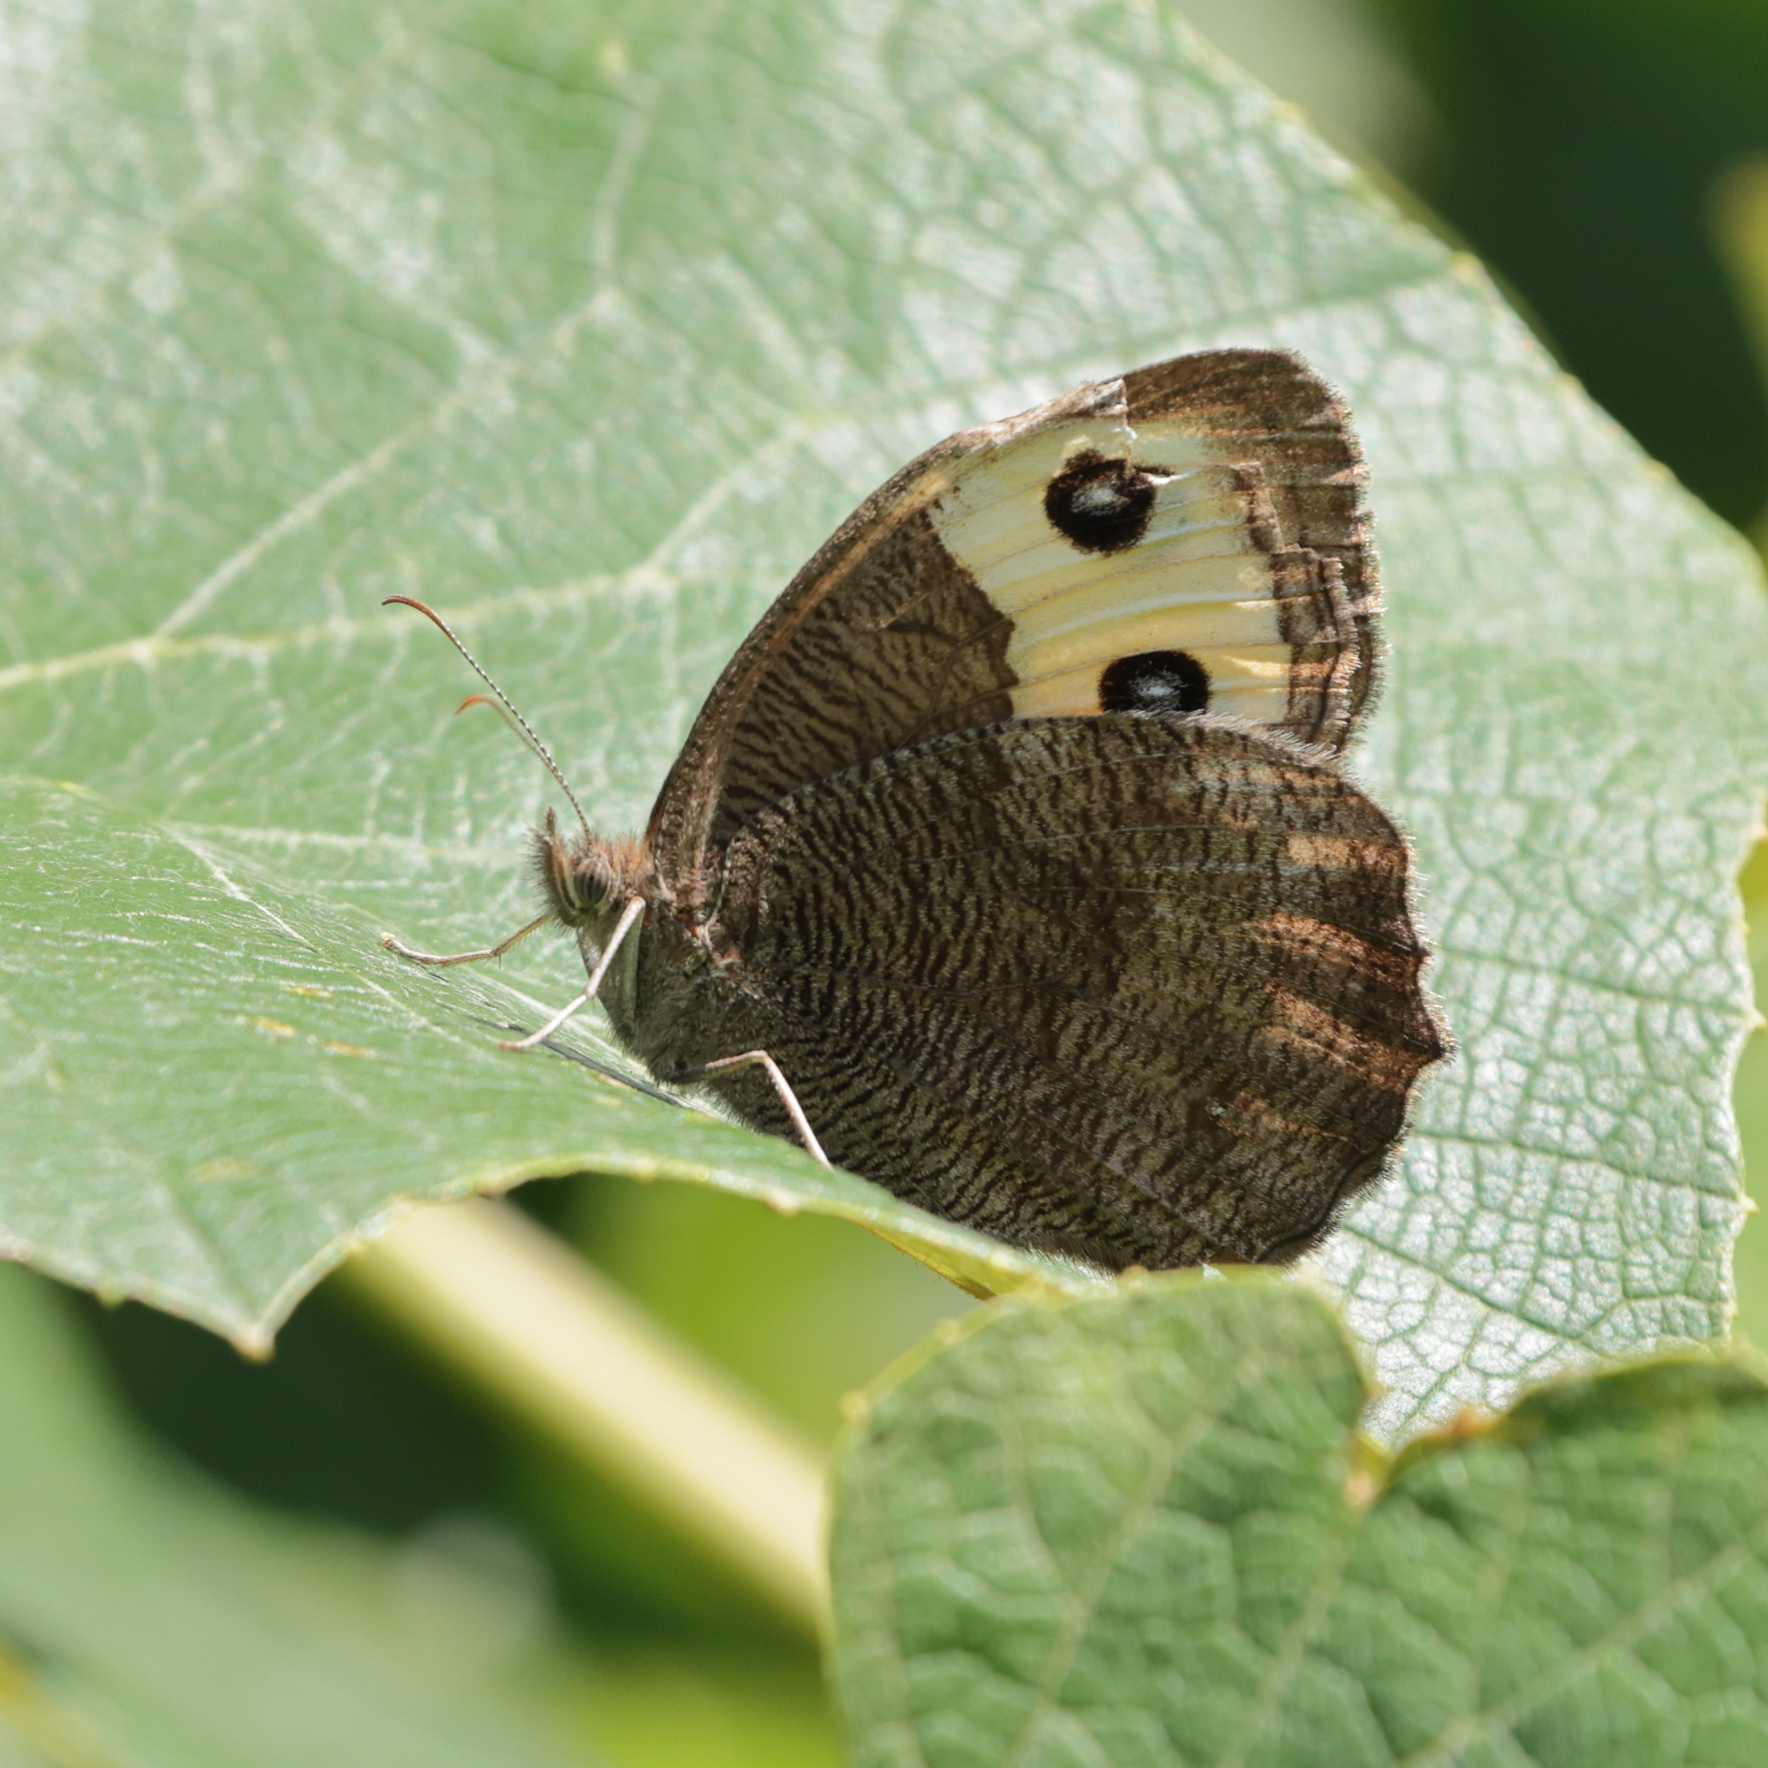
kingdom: Animalia
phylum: Arthropoda
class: Insecta
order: Lepidoptera
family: Nymphalidae
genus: Cercyonis
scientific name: Cercyonis pegala
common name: Common wood-nymph
